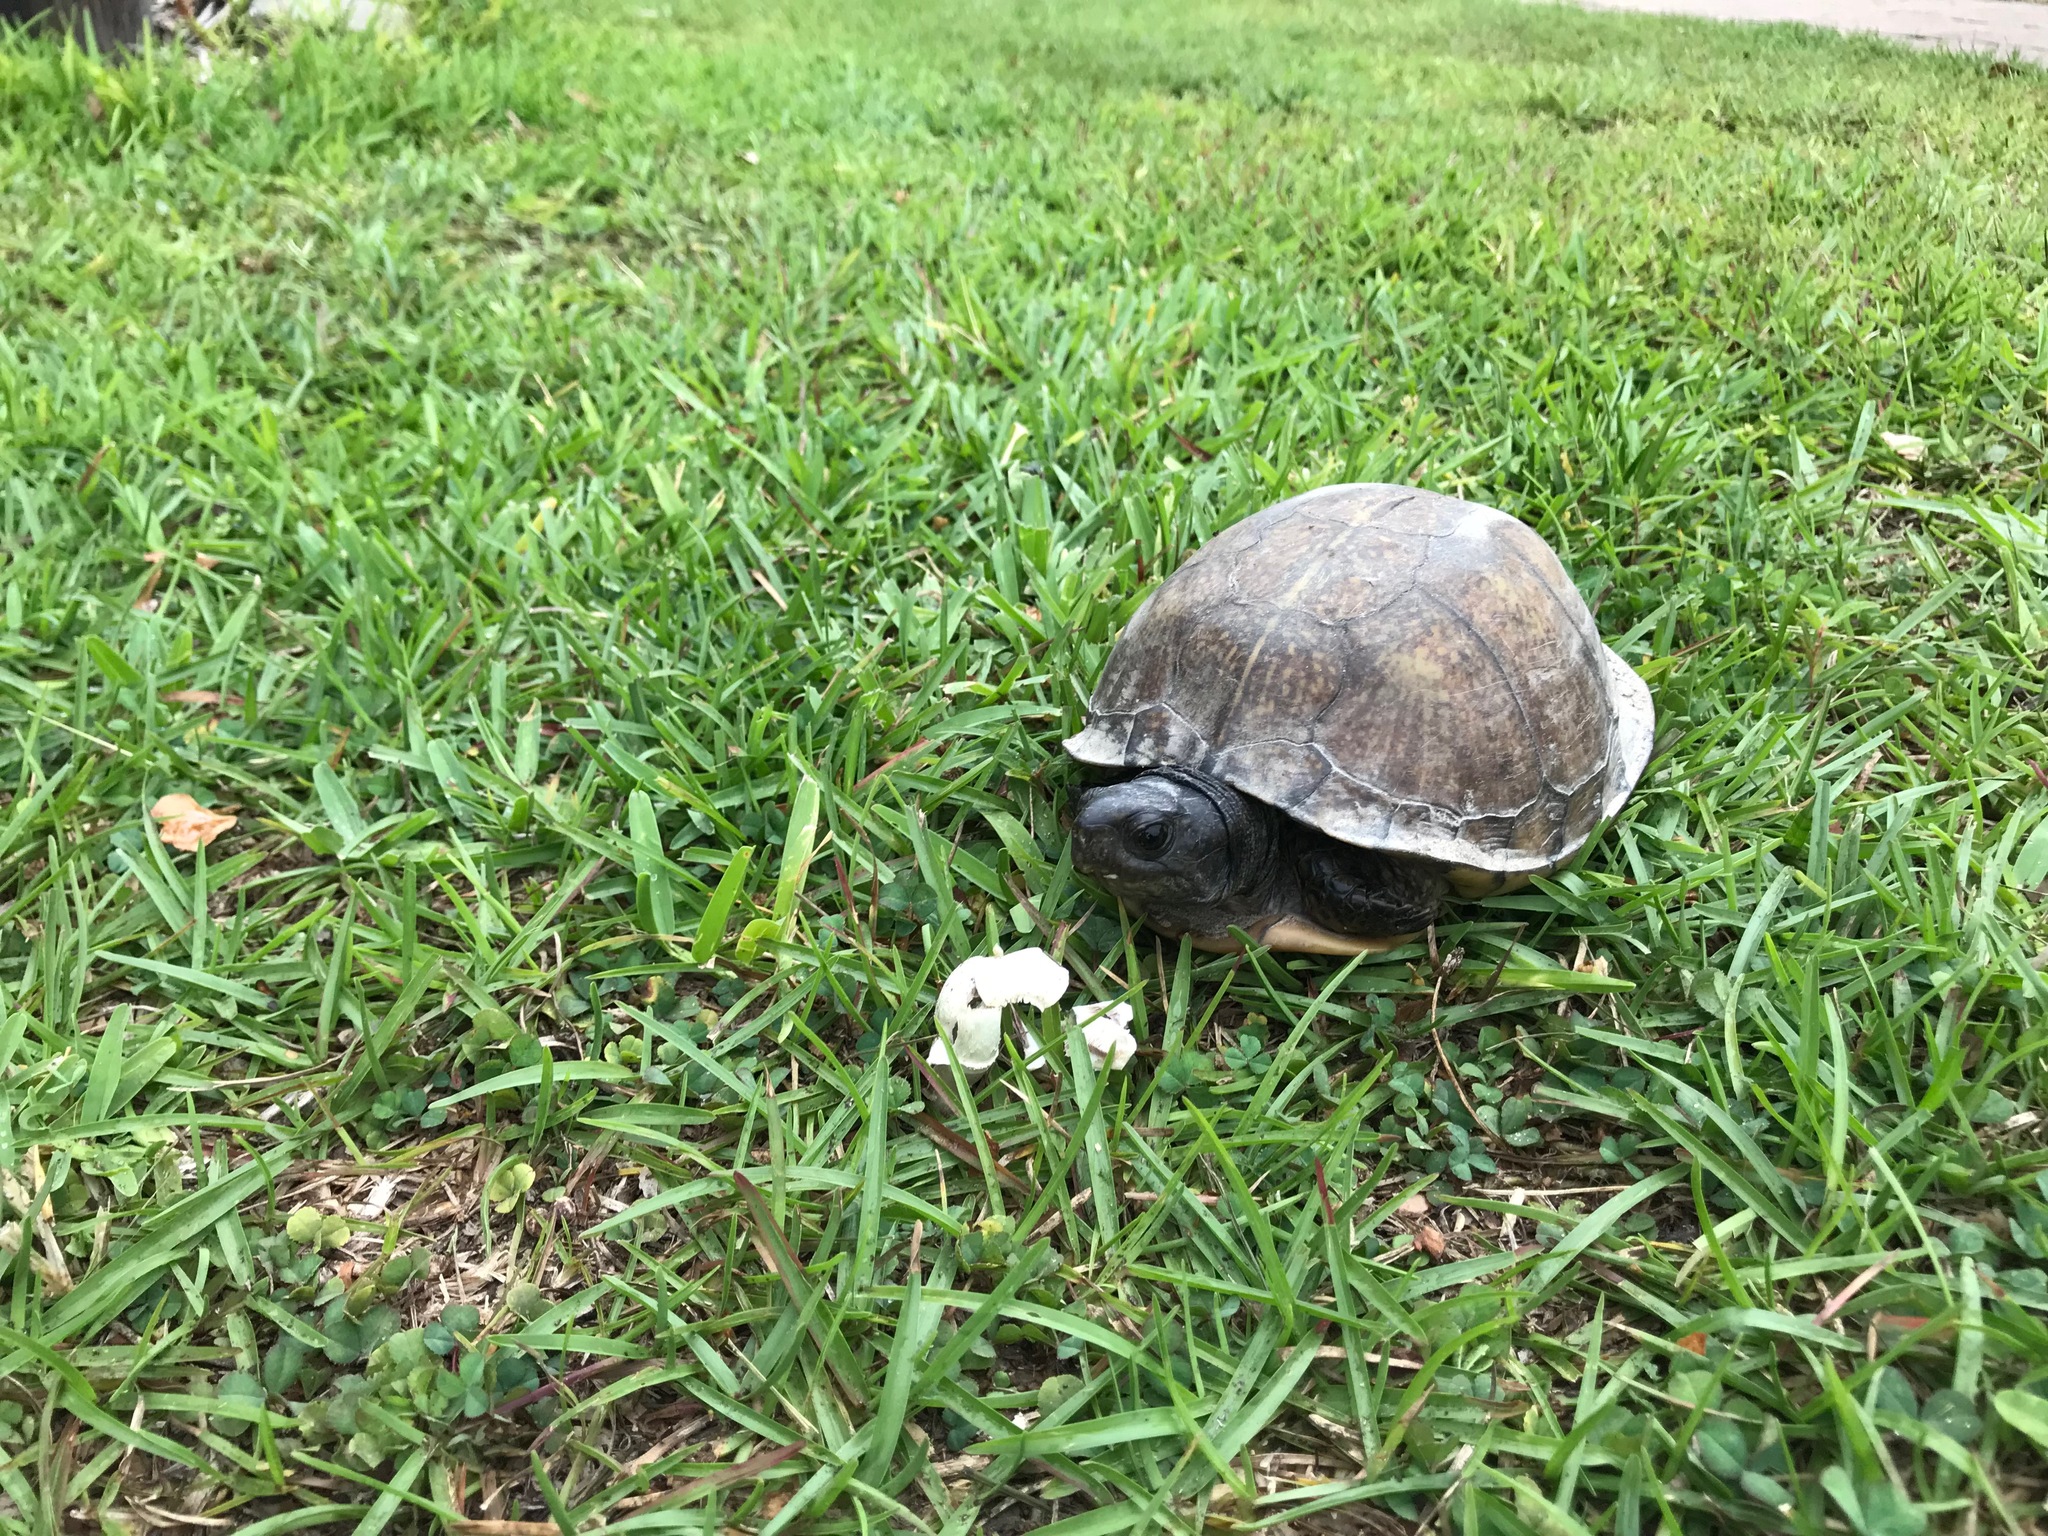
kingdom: Animalia
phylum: Chordata
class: Testudines
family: Emydidae
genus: Terrapene
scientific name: Terrapene carolina
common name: Common box turtle
